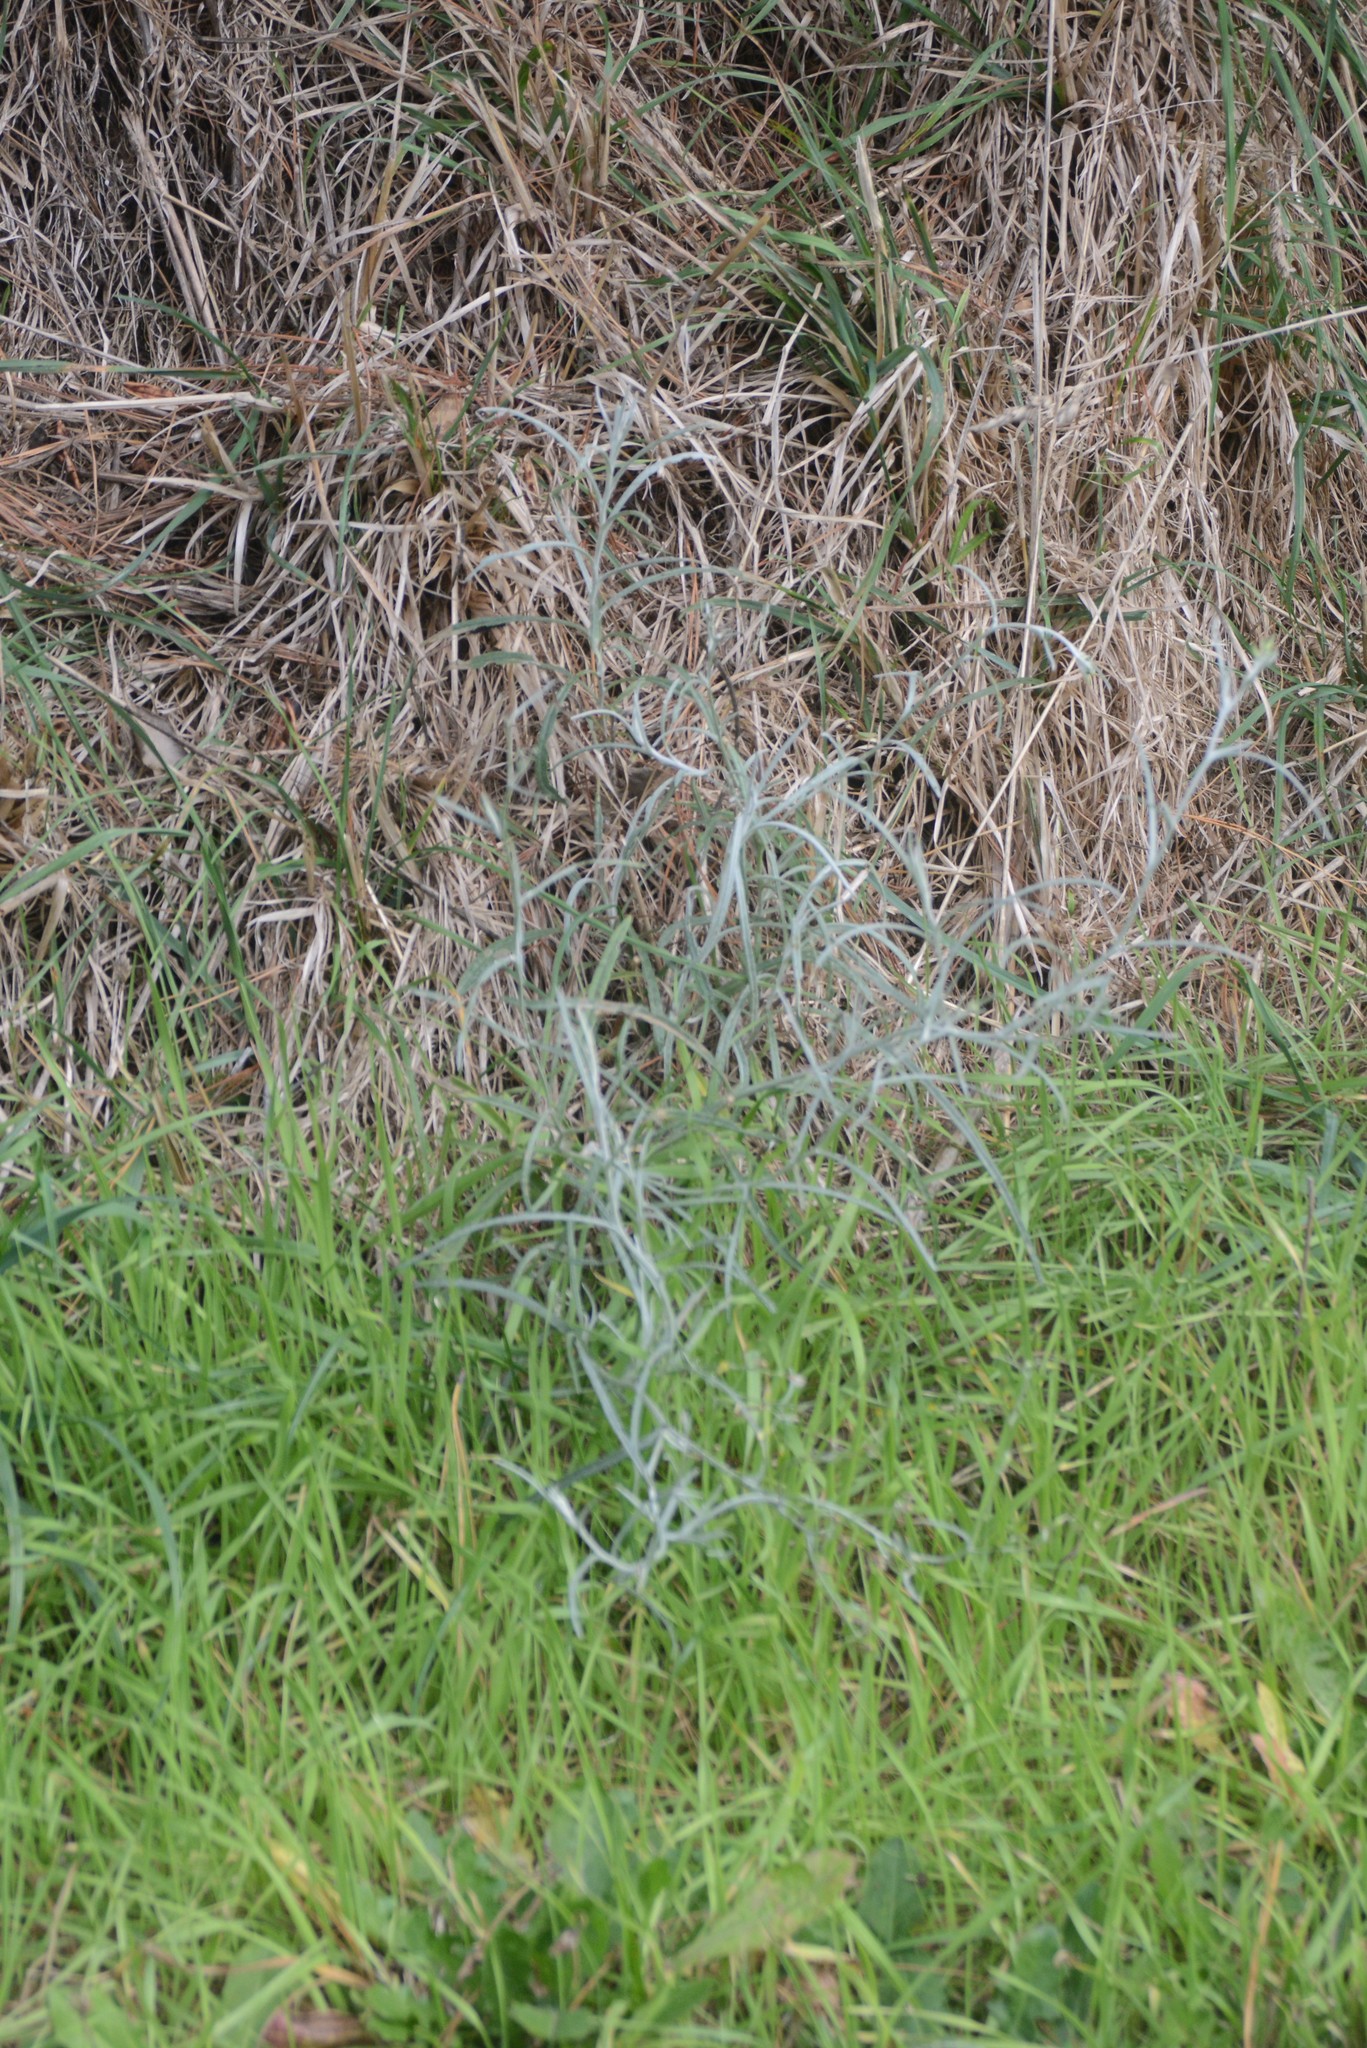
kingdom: Plantae
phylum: Tracheophyta
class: Magnoliopsida
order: Asterales
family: Asteraceae
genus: Senecio
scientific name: Senecio quadridentatus
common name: Cotton fireweed
